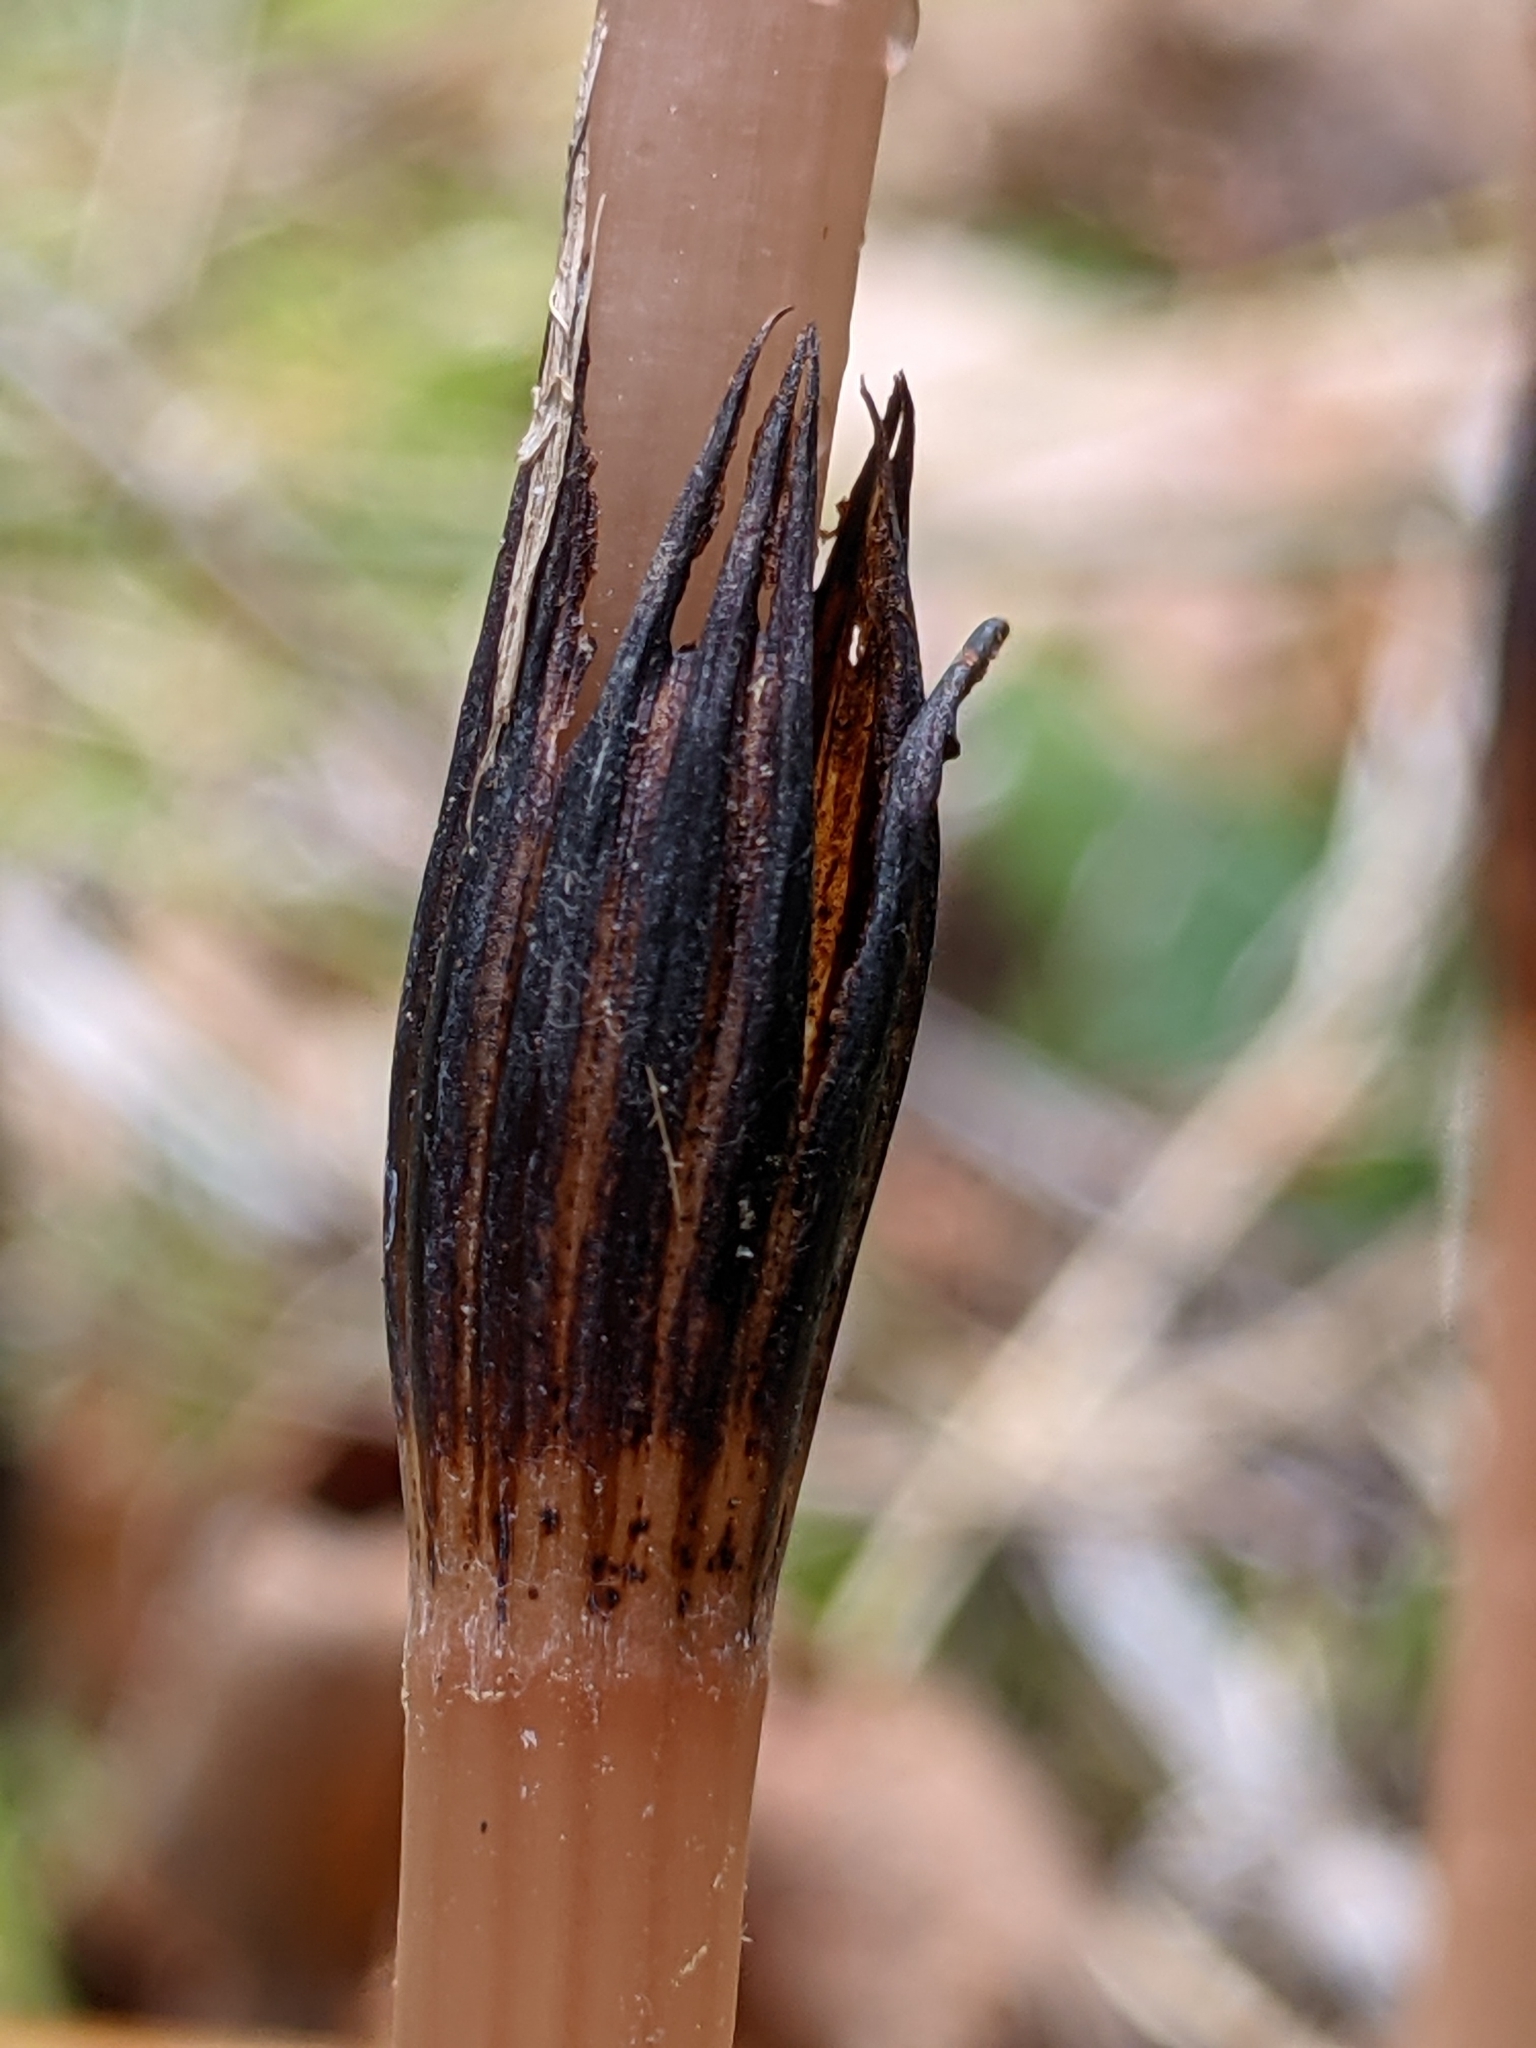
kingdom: Plantae
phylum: Tracheophyta
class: Polypodiopsida
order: Equisetales
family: Equisetaceae
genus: Equisetum
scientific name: Equisetum arvense
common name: Field horsetail
